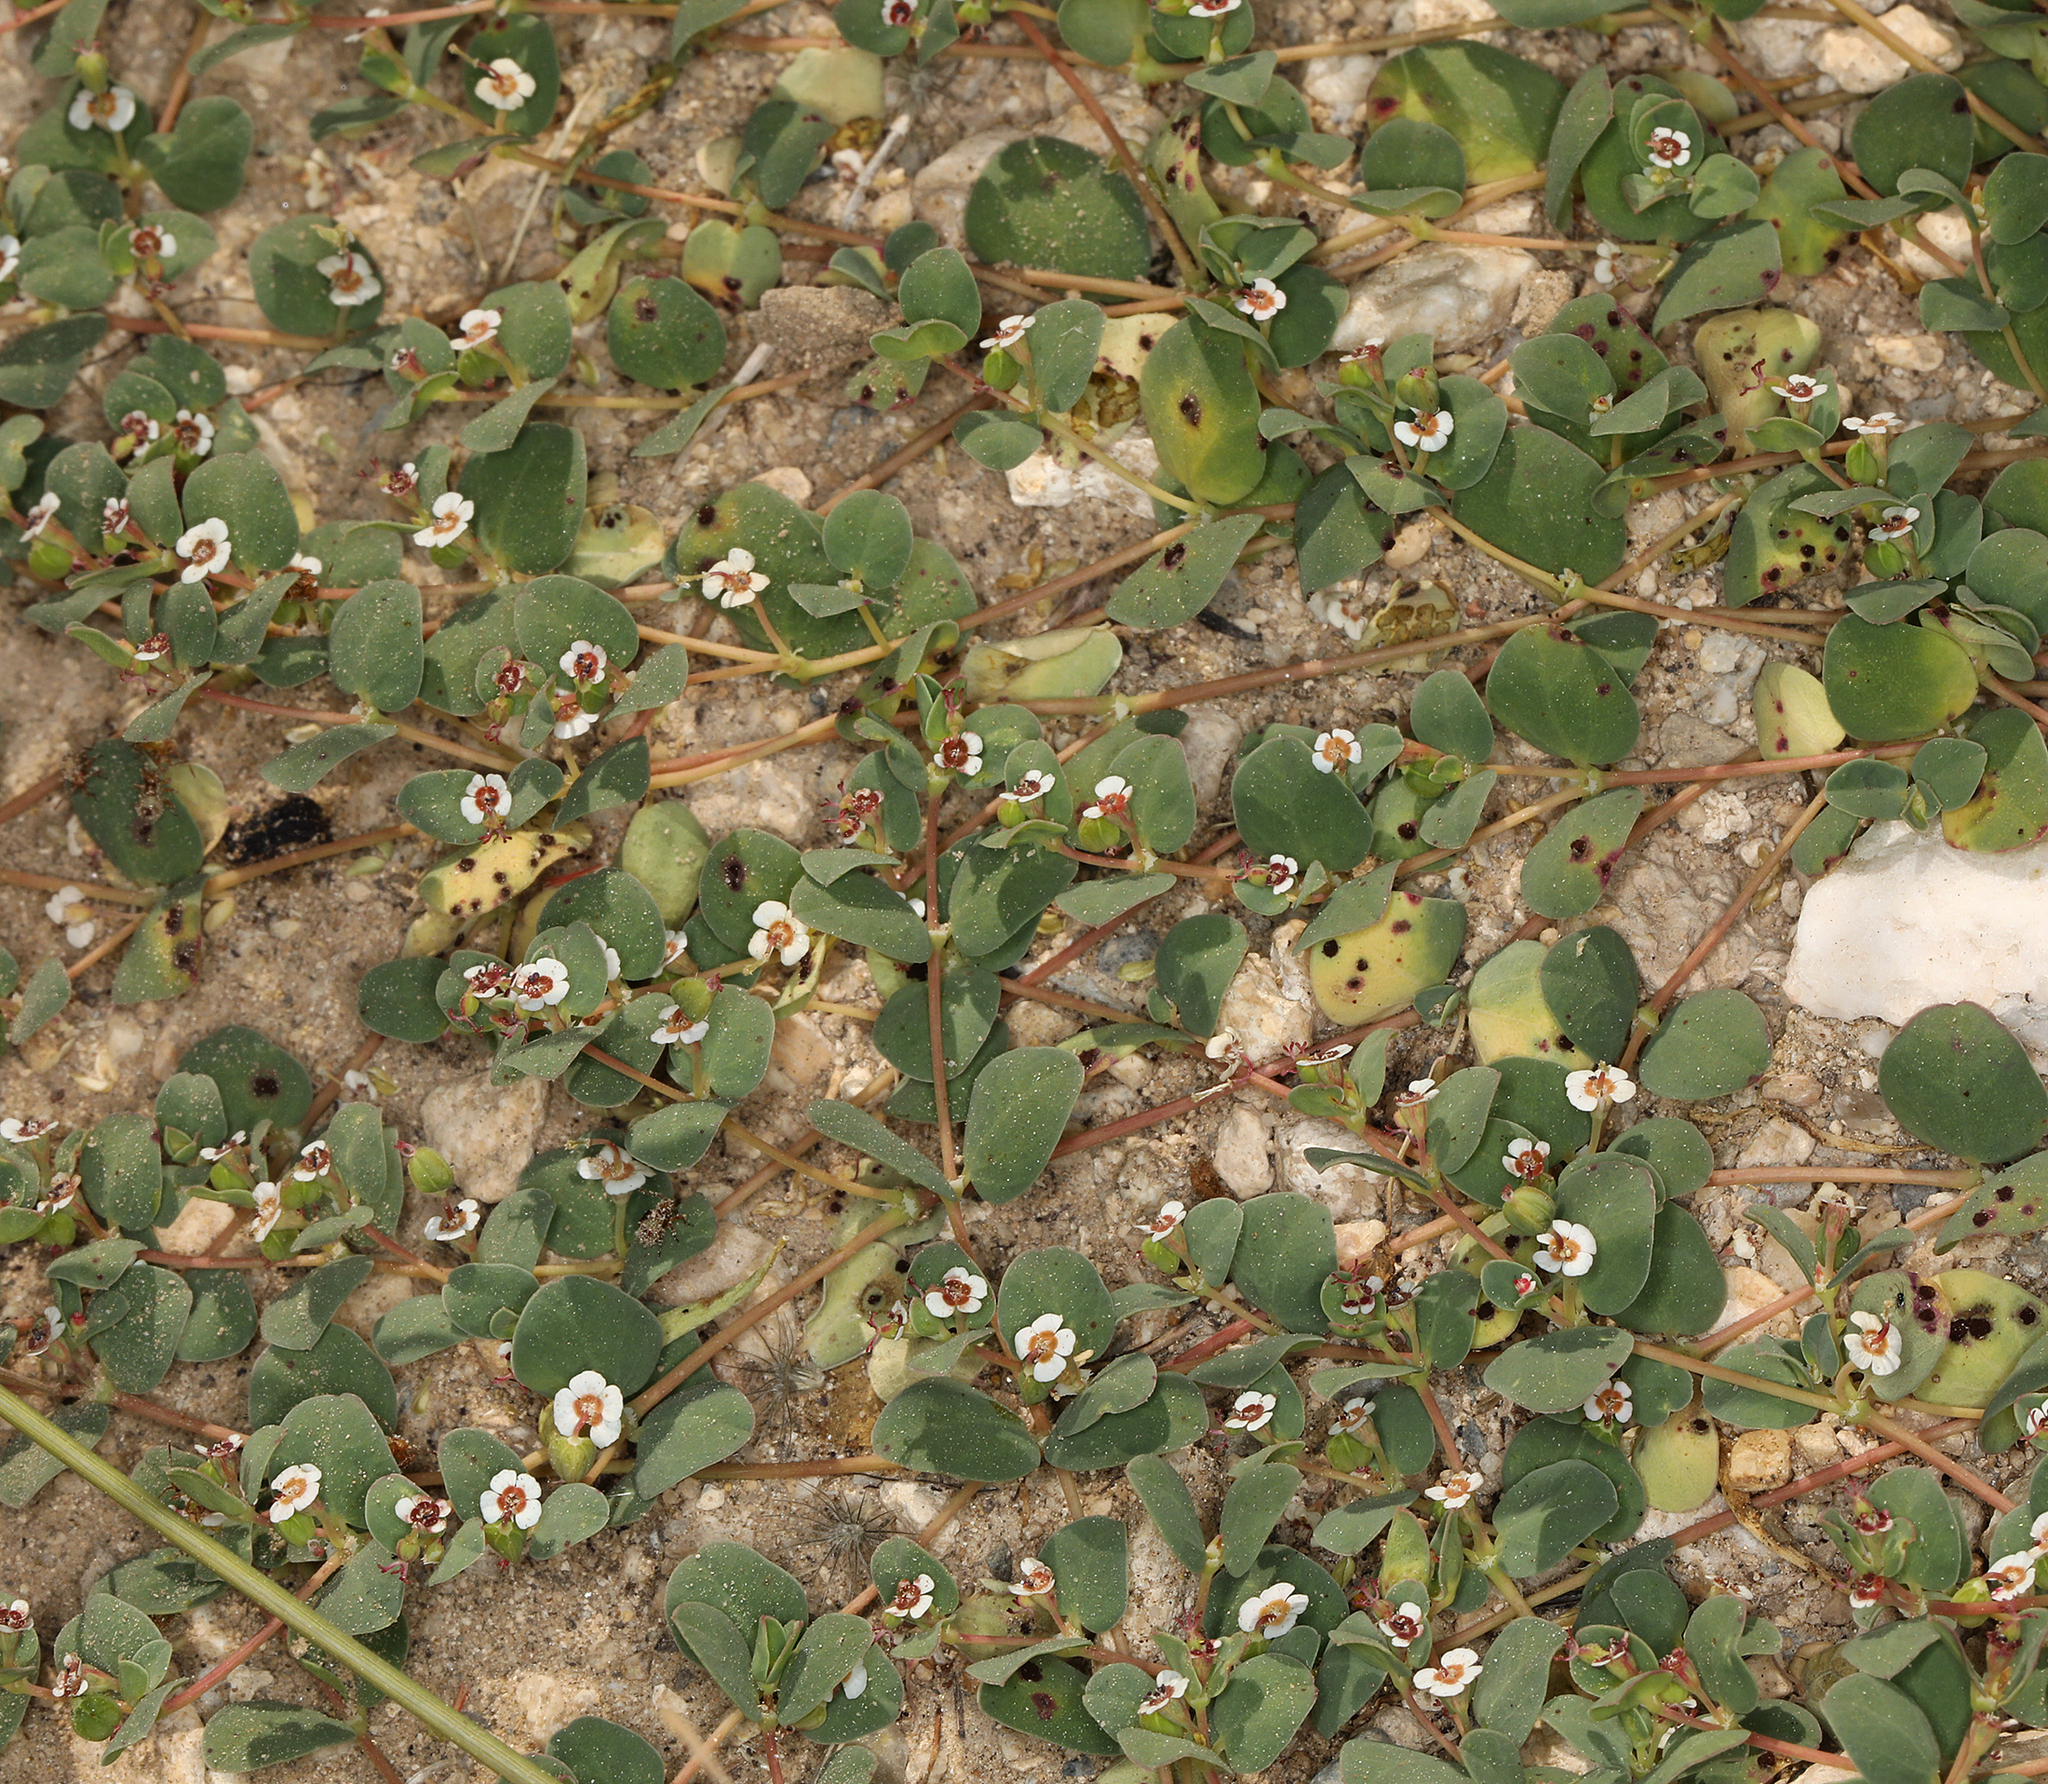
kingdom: Plantae
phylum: Tracheophyta
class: Magnoliopsida
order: Malpighiales
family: Euphorbiaceae
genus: Euphorbia
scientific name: Euphorbia albomarginata
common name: Whitemargin sandmat
